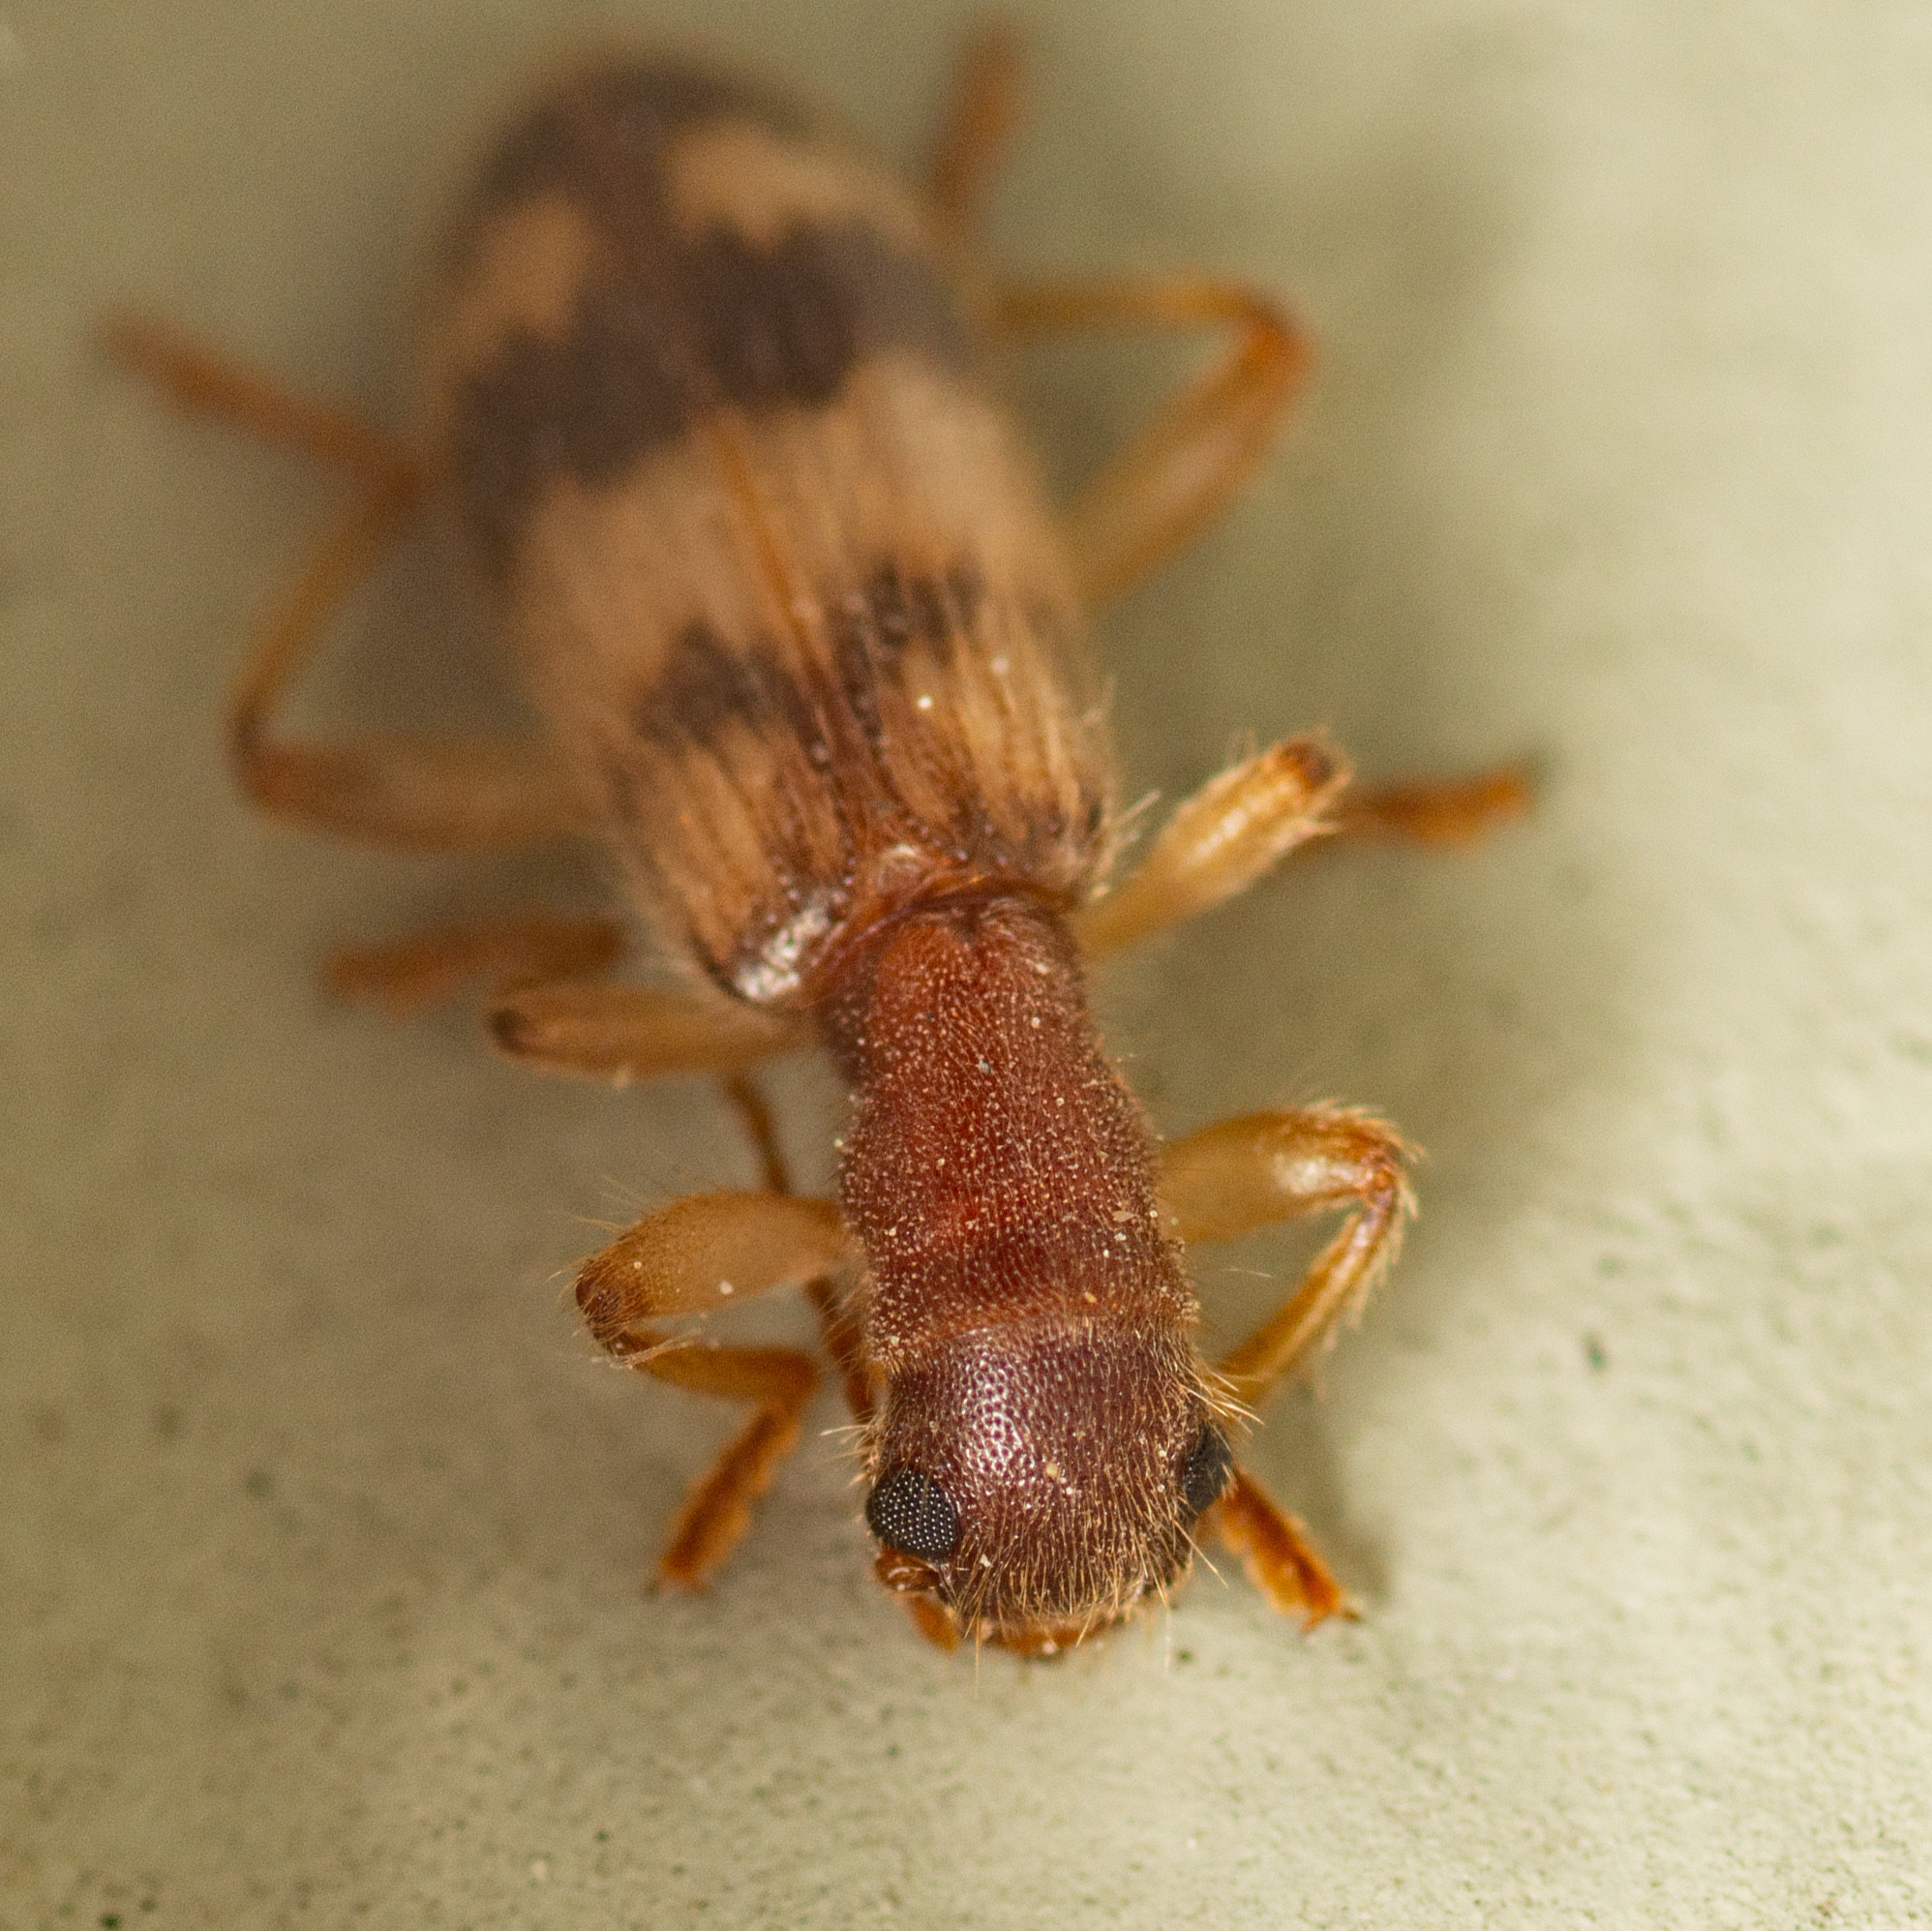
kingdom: Animalia
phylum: Arthropoda
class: Insecta
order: Coleoptera
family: Cleridae
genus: Cymatodera
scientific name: Cymatodera undulata
